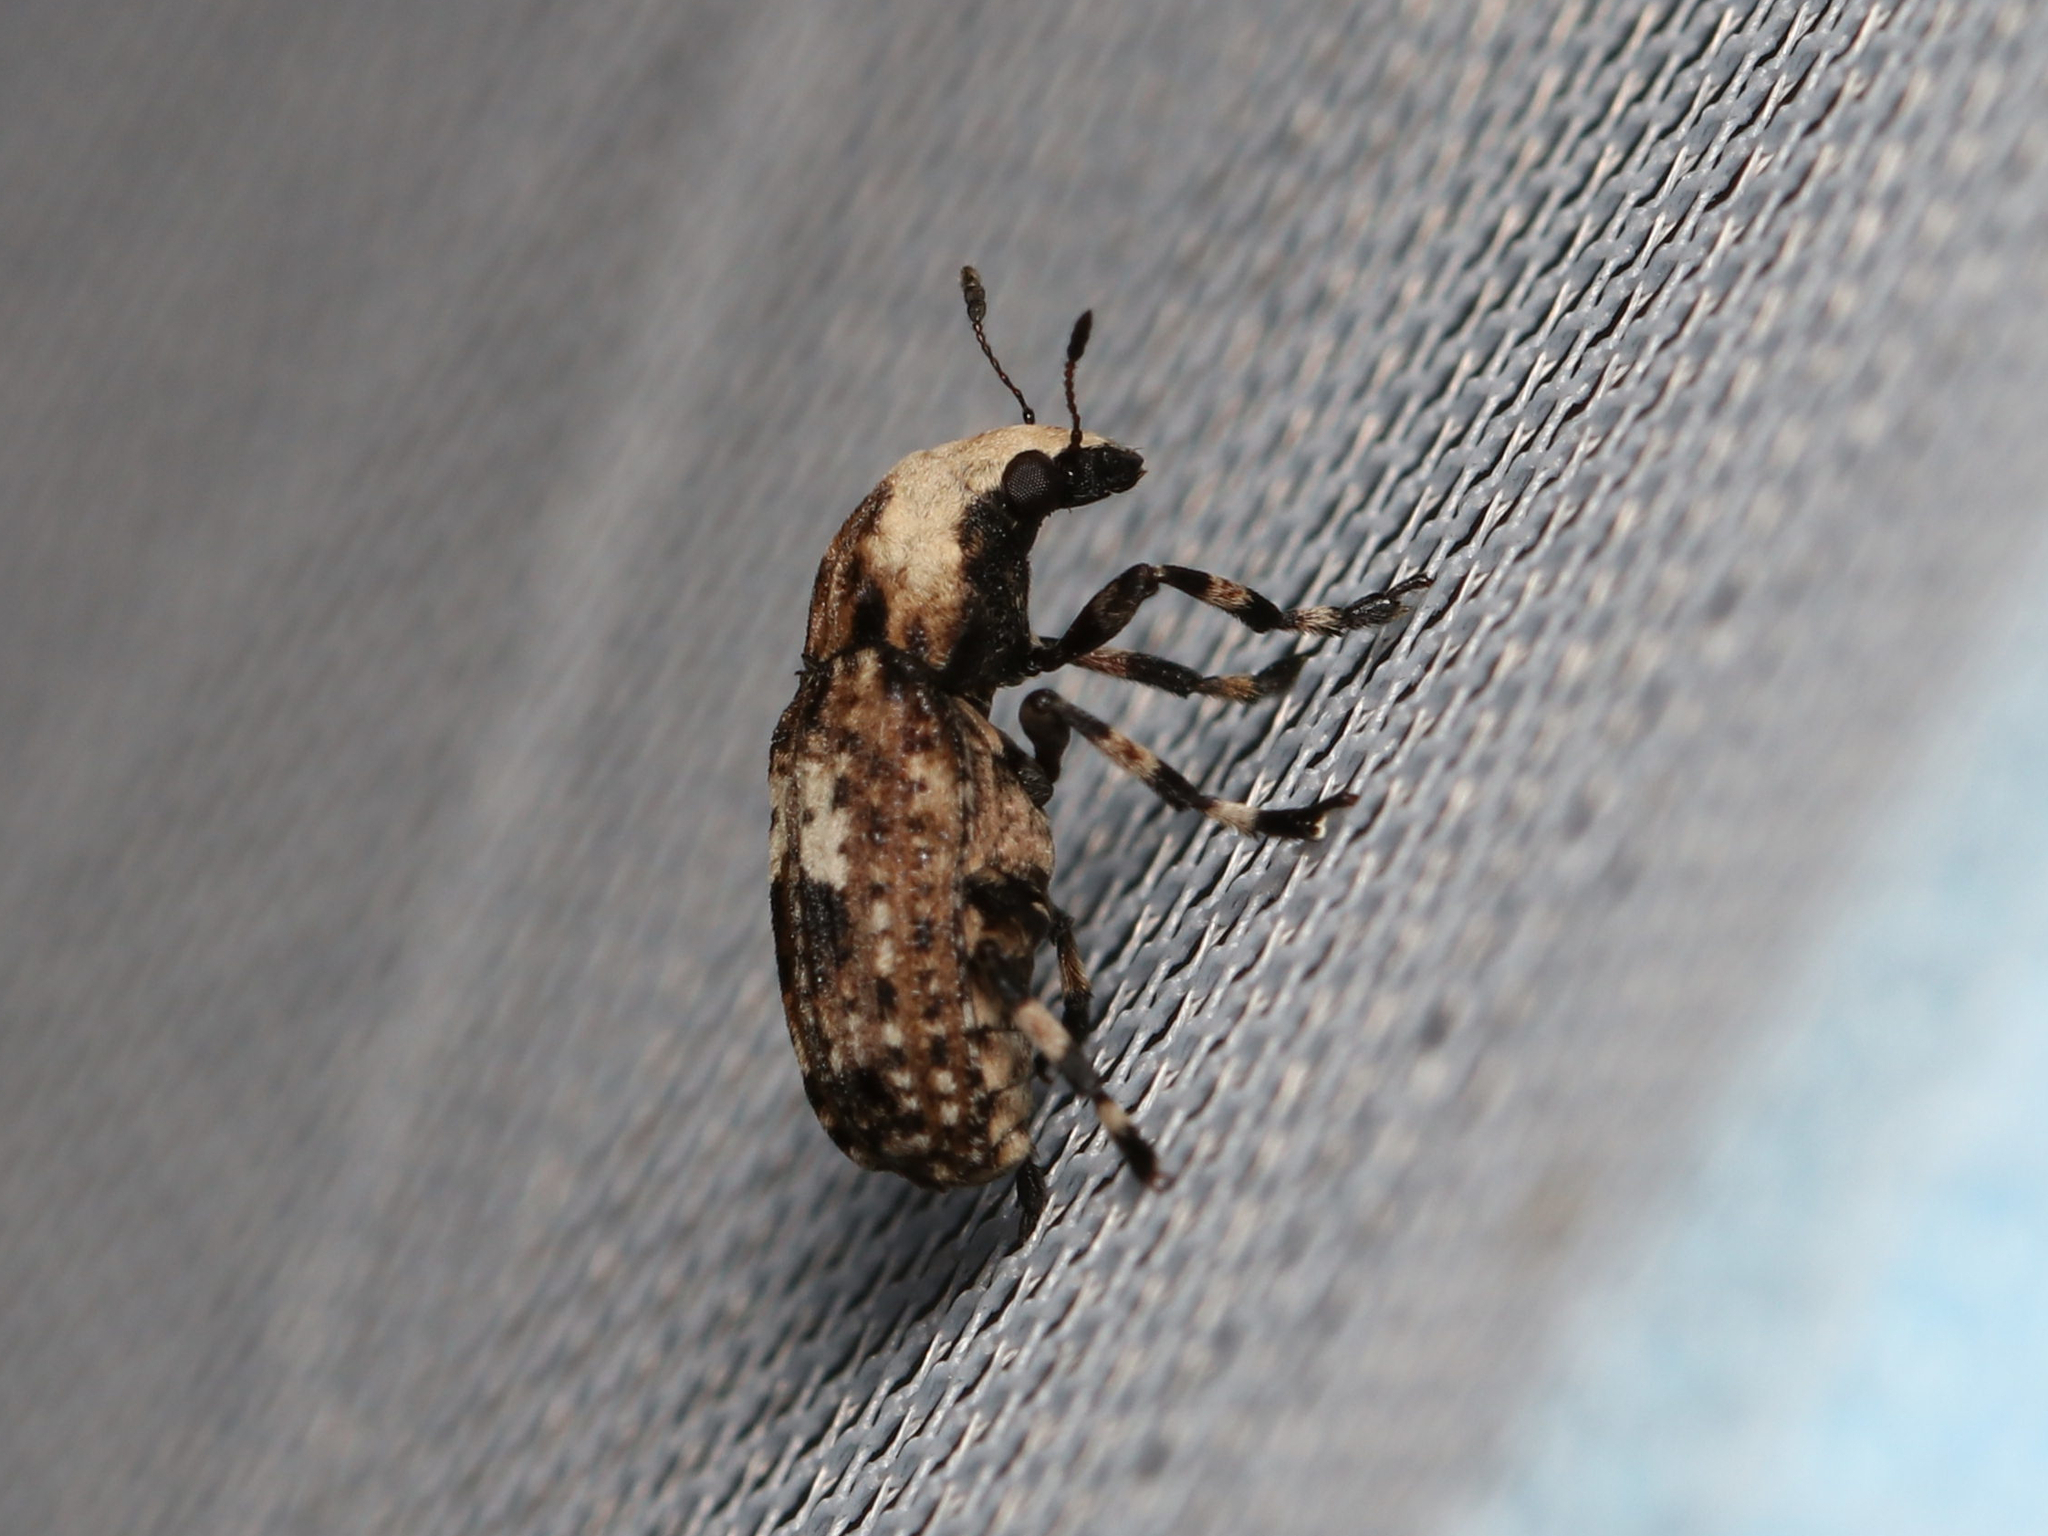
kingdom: Animalia
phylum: Arthropoda
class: Insecta
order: Coleoptera
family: Anthribidae
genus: Euparius
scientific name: Euparius marmoreus
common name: Marbled fungus weevil
